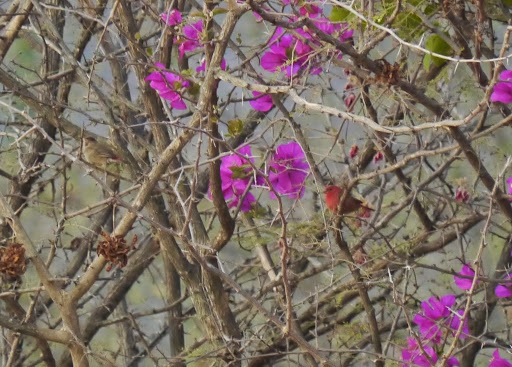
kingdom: Animalia
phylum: Chordata
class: Aves
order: Passeriformes
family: Estrildidae
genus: Lagonosticta
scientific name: Lagonosticta senegala
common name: Red-billed firefinch
